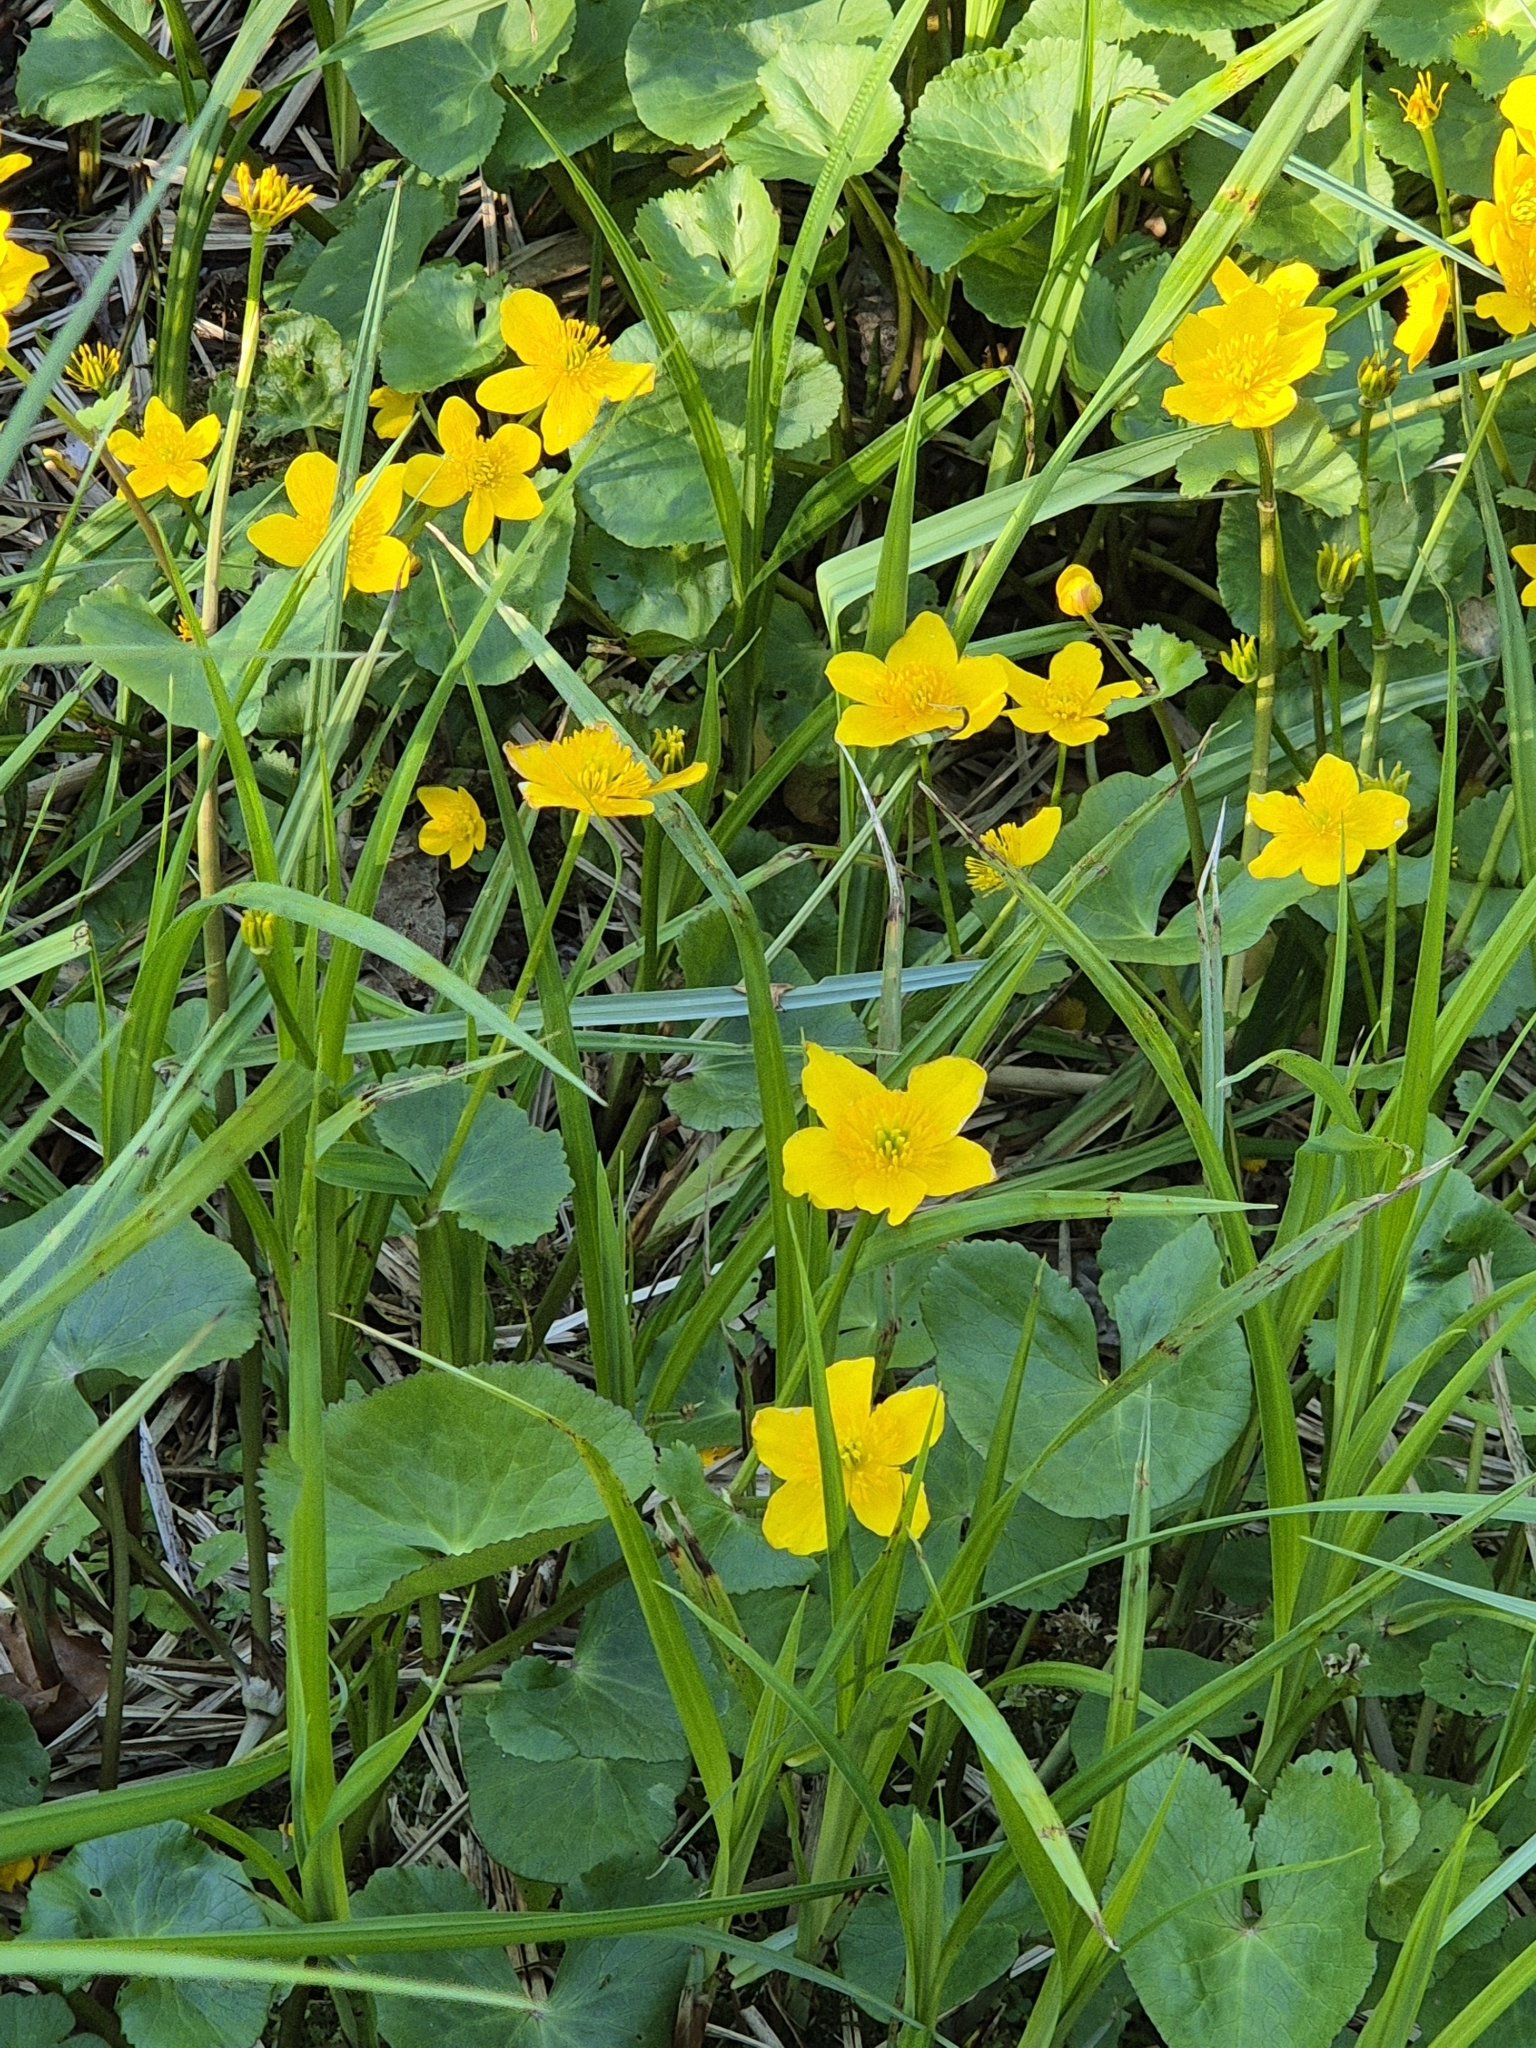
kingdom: Plantae
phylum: Tracheophyta
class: Magnoliopsida
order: Ranunculales
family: Ranunculaceae
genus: Caltha
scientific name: Caltha palustris
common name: Marsh marigold
